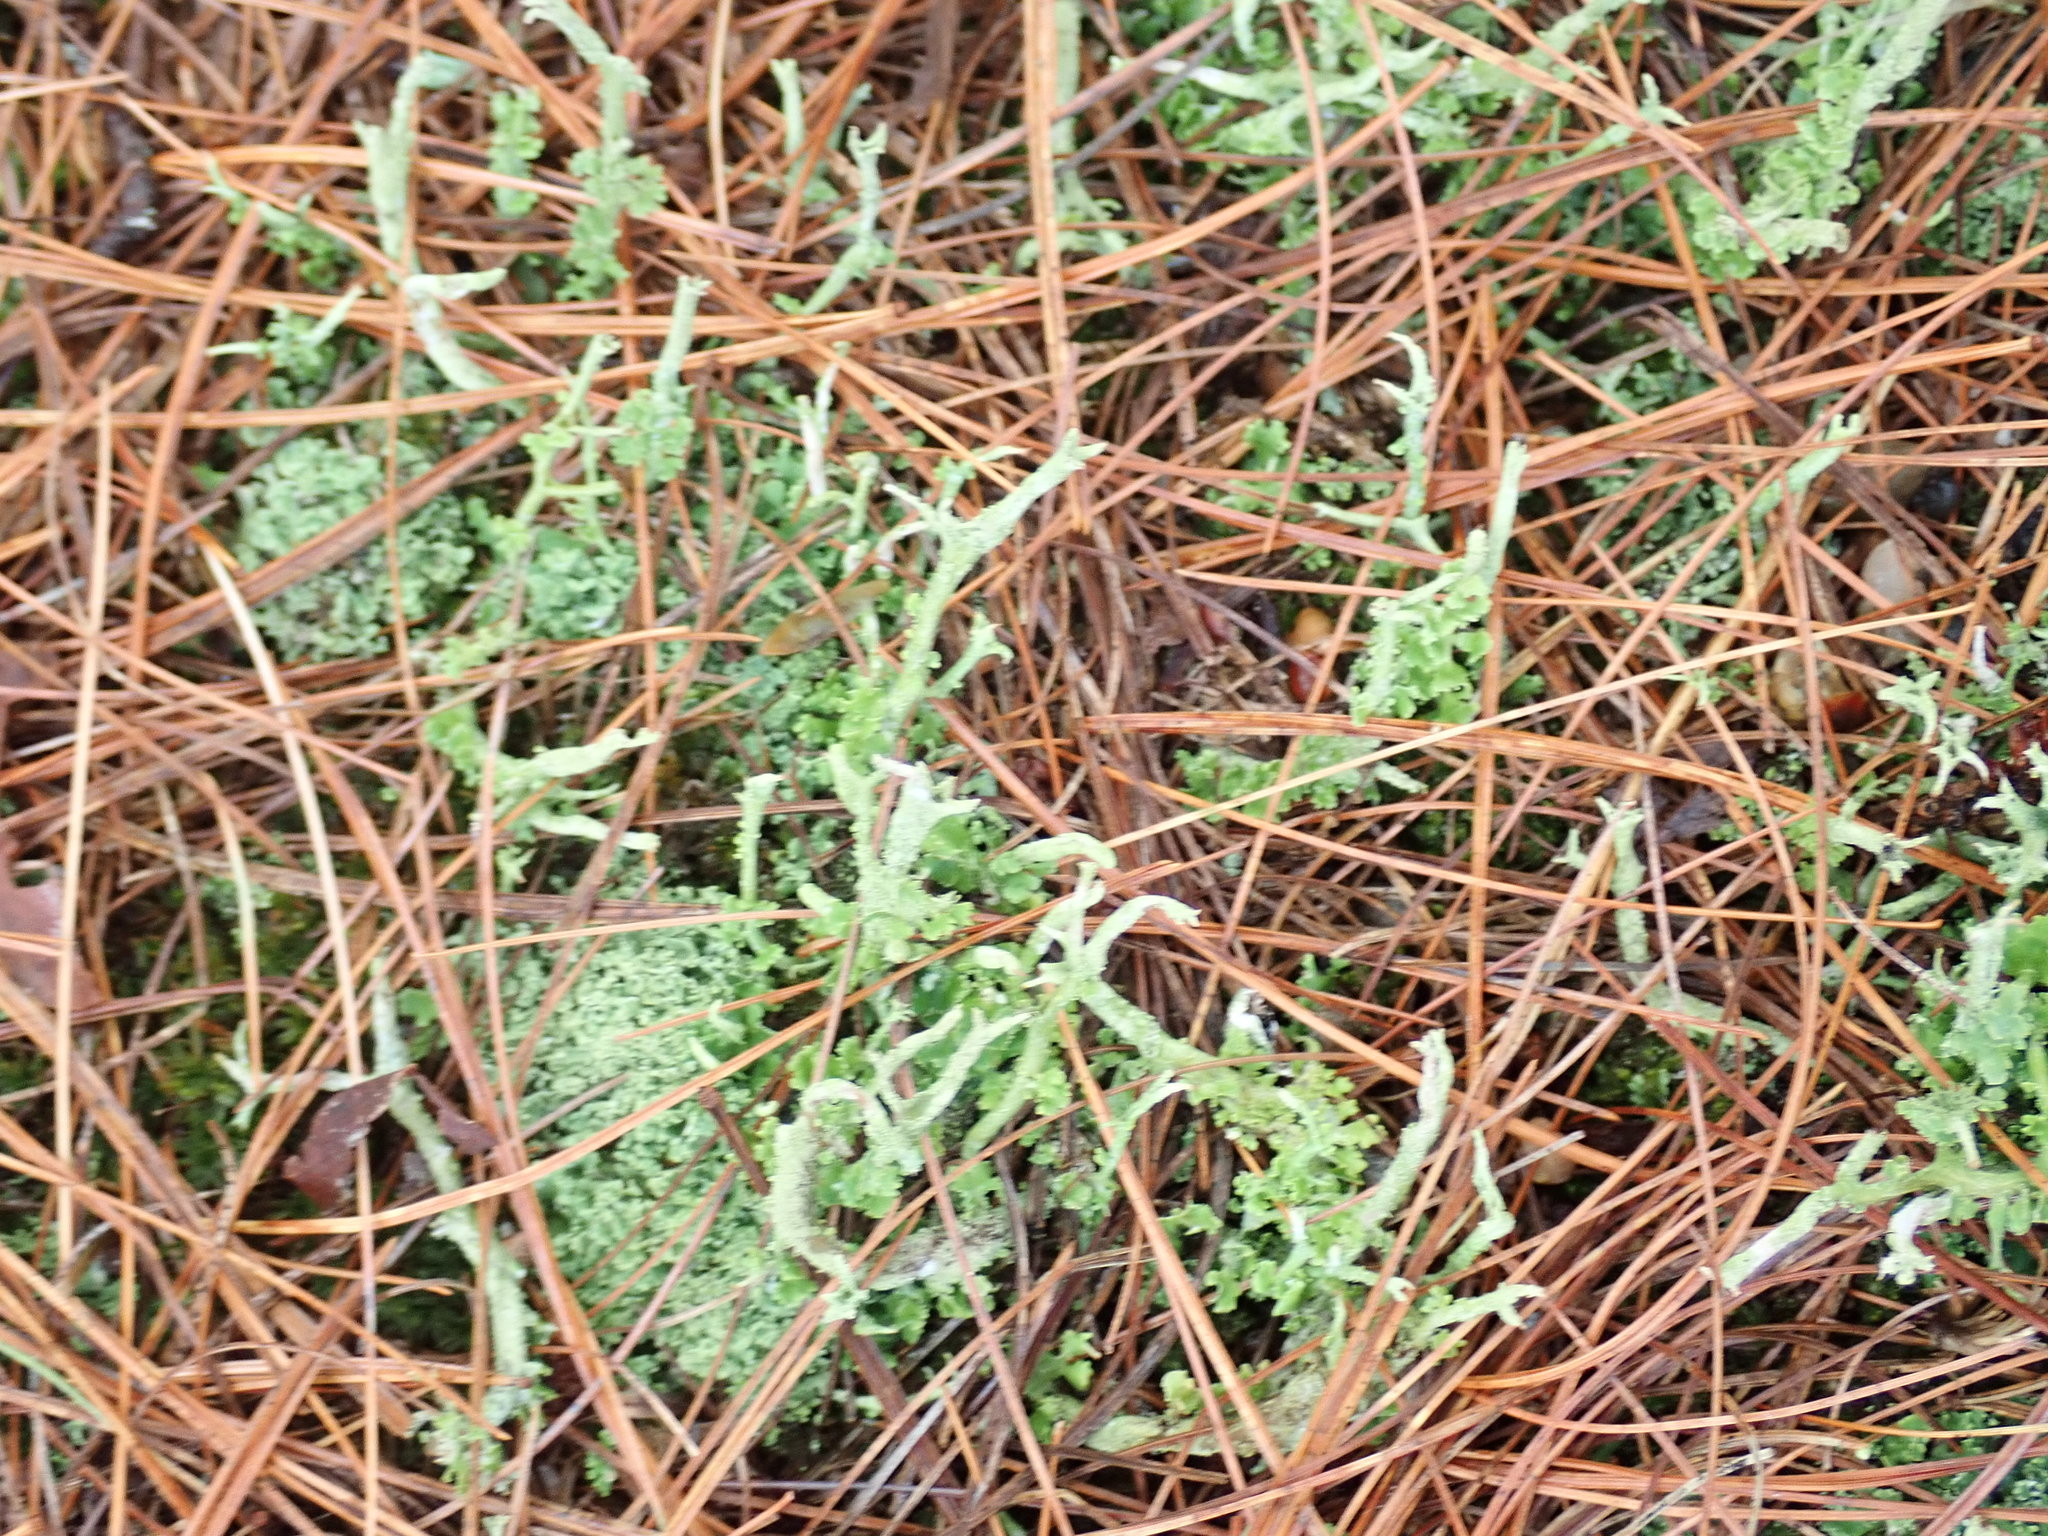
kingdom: Fungi
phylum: Ascomycota
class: Lecanoromycetes
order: Lecanorales
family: Cladoniaceae
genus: Cladonia
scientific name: Cladonia
